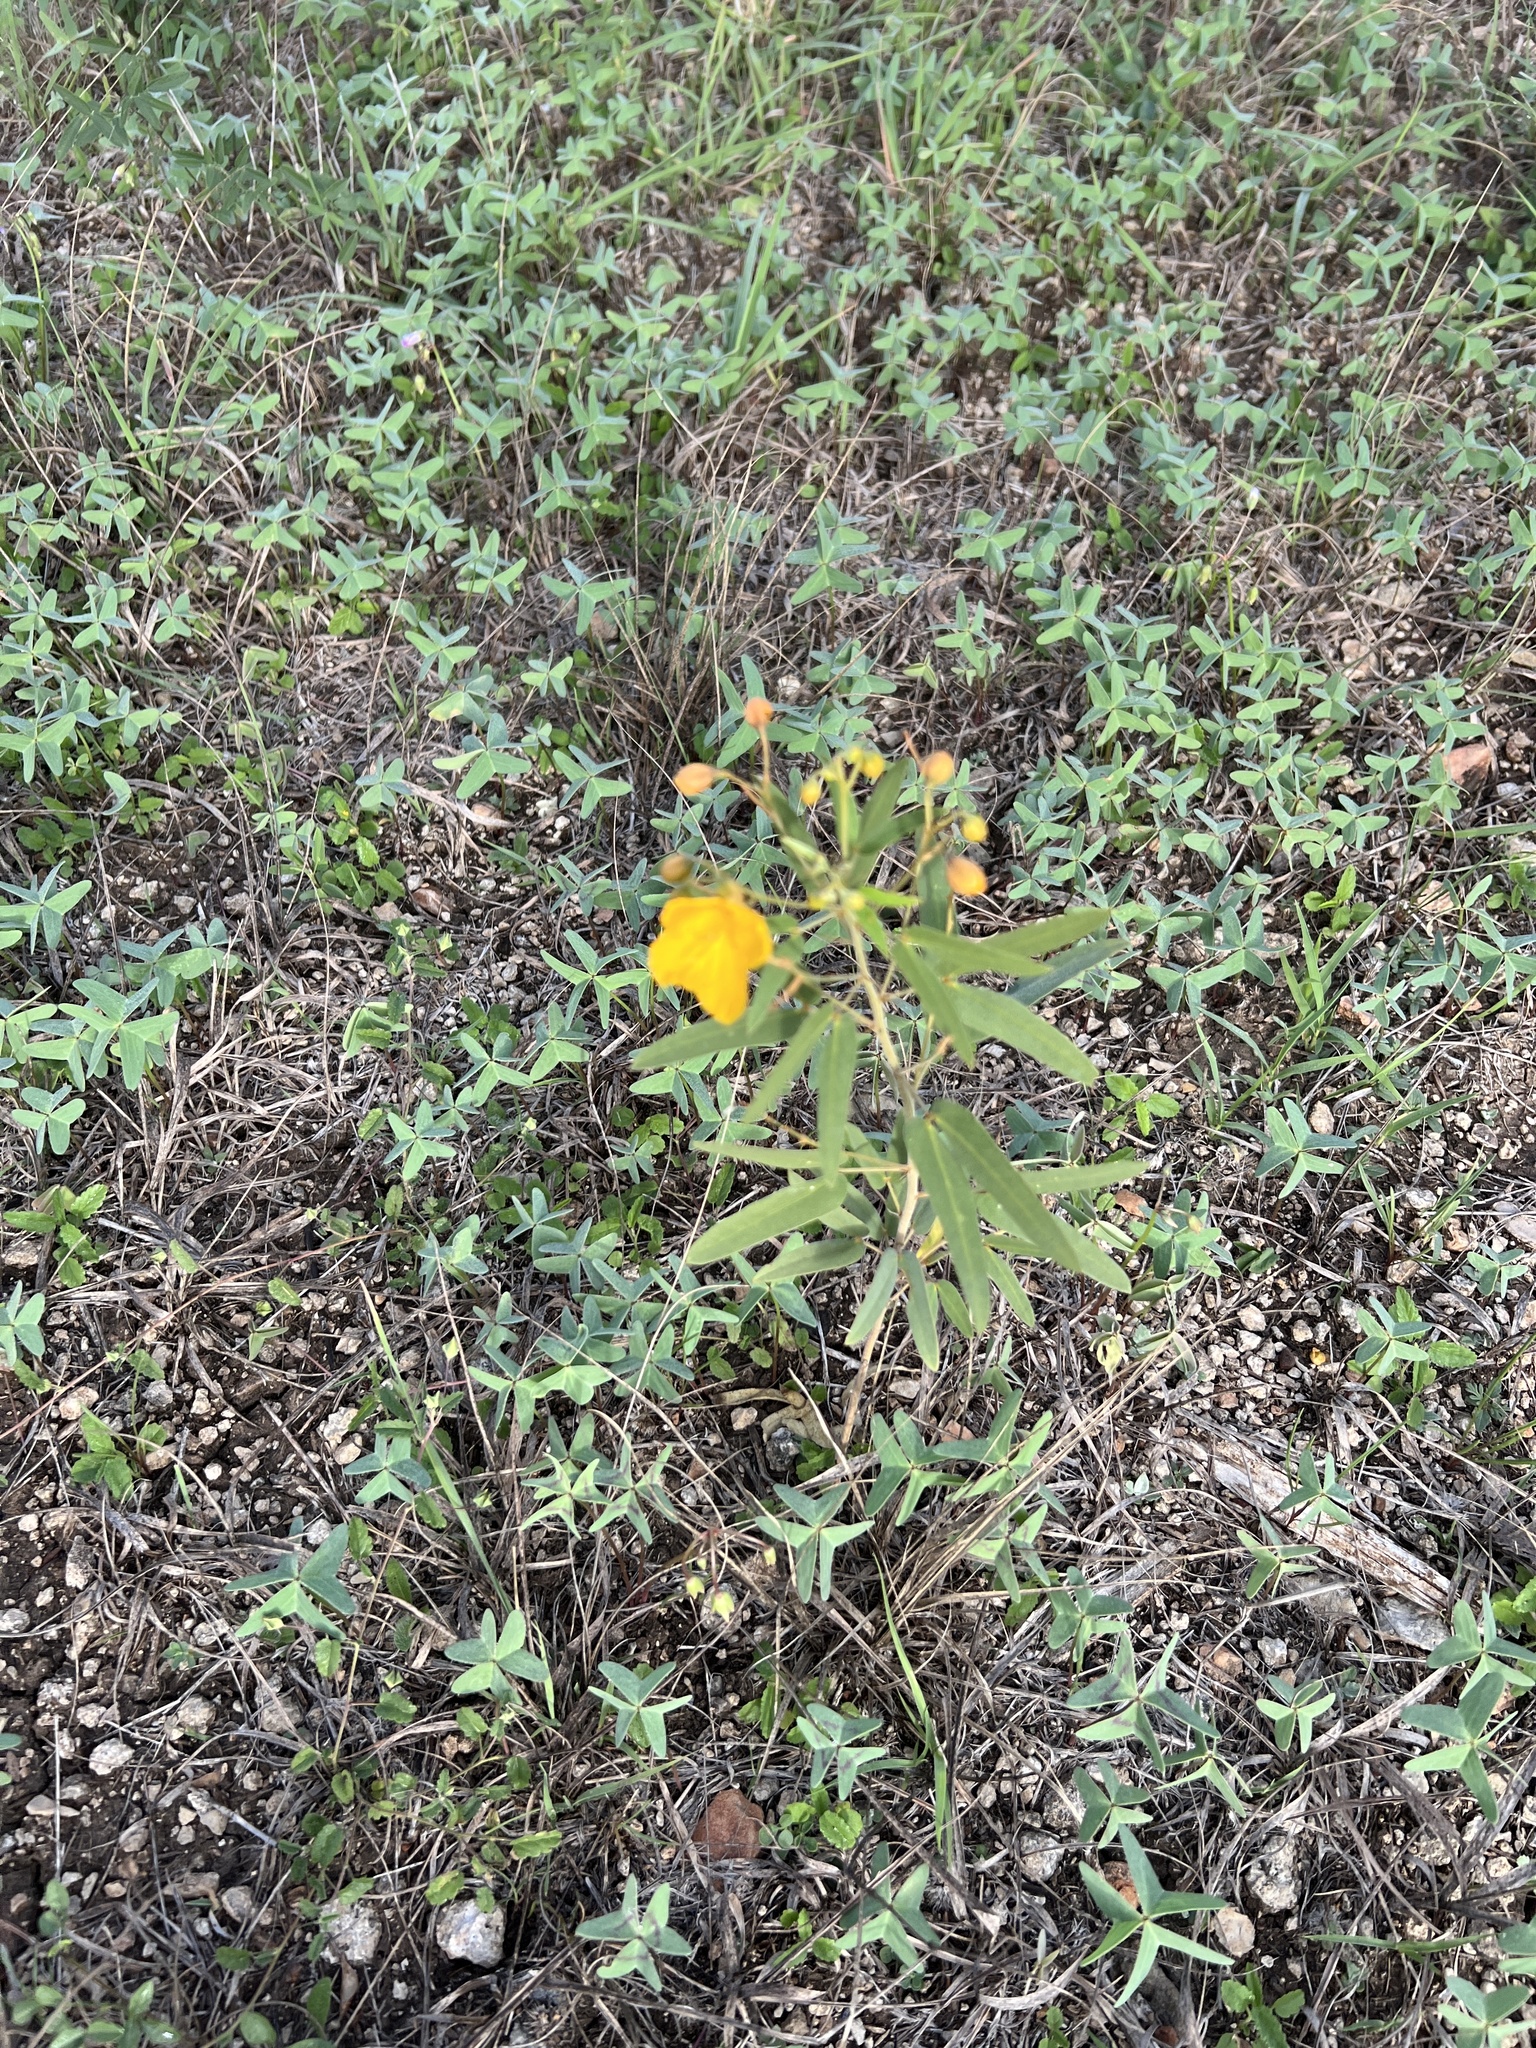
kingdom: Plantae
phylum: Tracheophyta
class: Magnoliopsida
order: Fabales
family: Fabaceae
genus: Senna
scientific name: Senna roemeriana
